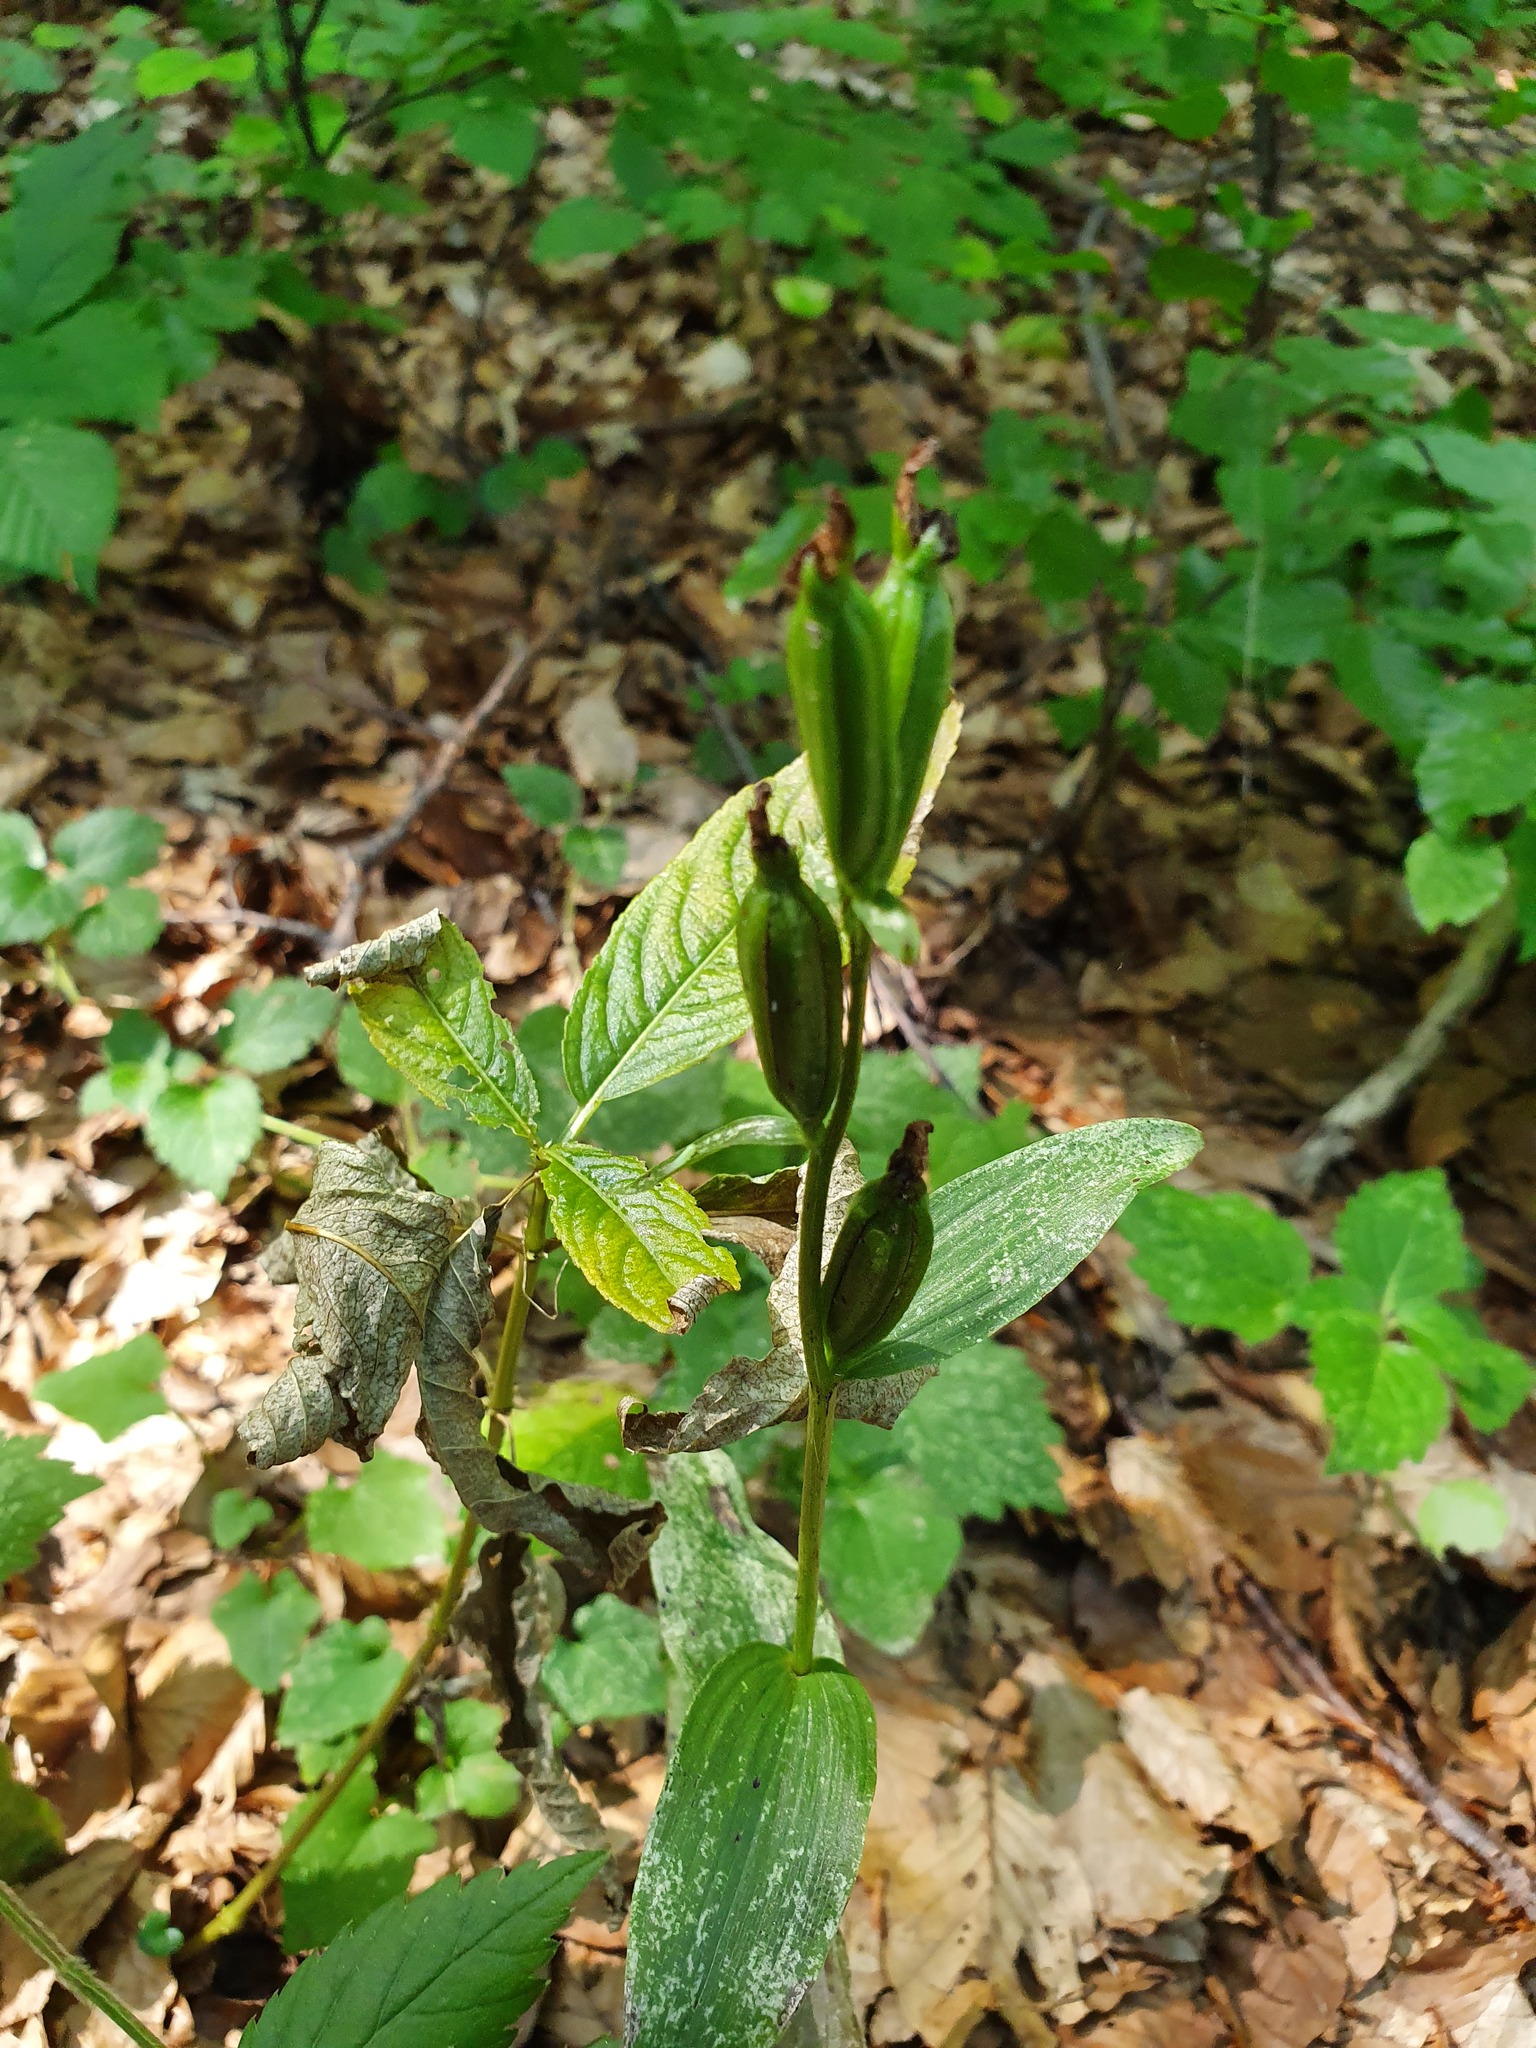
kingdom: Plantae
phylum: Tracheophyta
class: Liliopsida
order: Asparagales
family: Orchidaceae
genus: Cephalanthera
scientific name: Cephalanthera damasonium
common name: White helleborine
